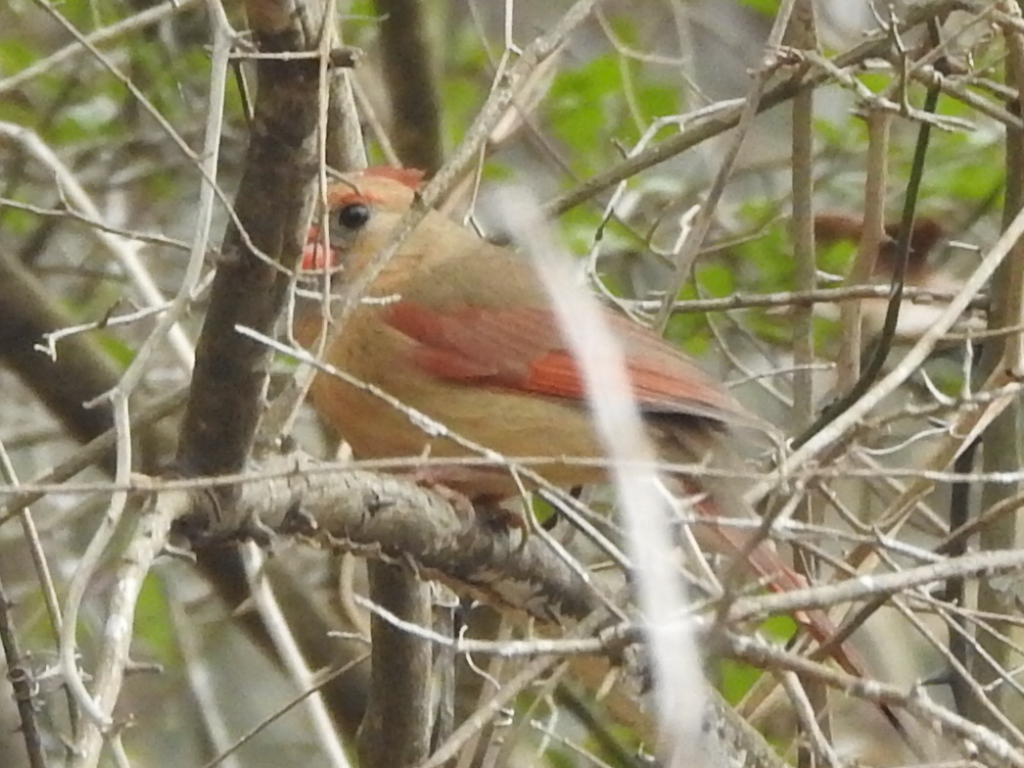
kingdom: Animalia
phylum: Chordata
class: Aves
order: Passeriformes
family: Cardinalidae
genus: Cardinalis
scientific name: Cardinalis cardinalis
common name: Northern cardinal
